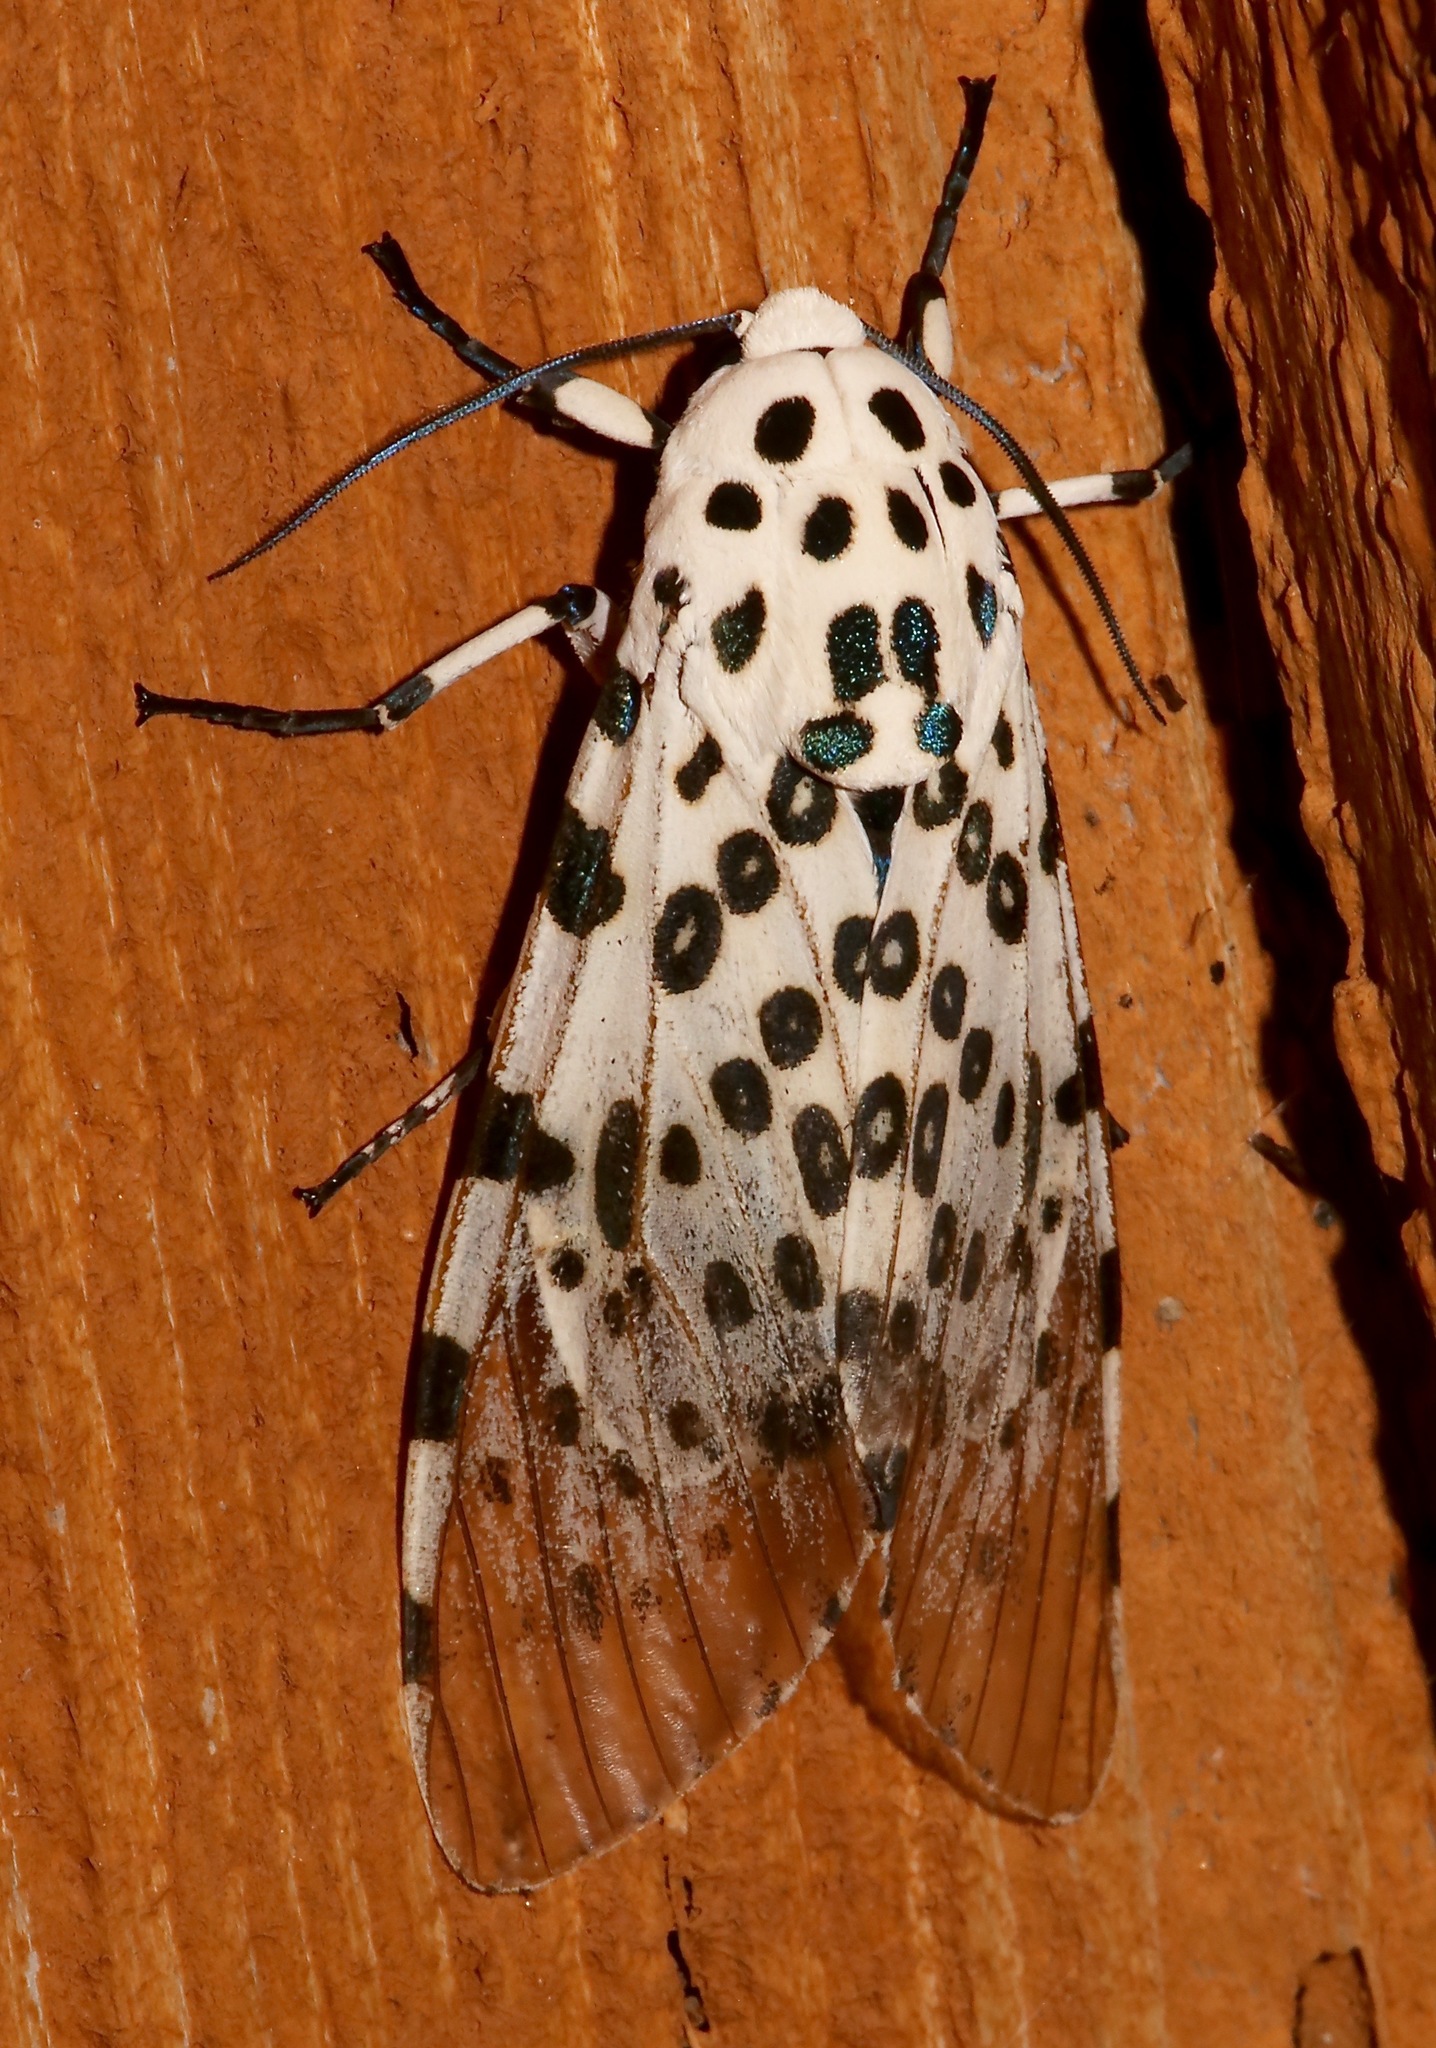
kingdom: Animalia
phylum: Arthropoda
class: Insecta
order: Lepidoptera
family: Erebidae
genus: Hypercompe
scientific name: Hypercompe scribonia
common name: Giant leopard moth
